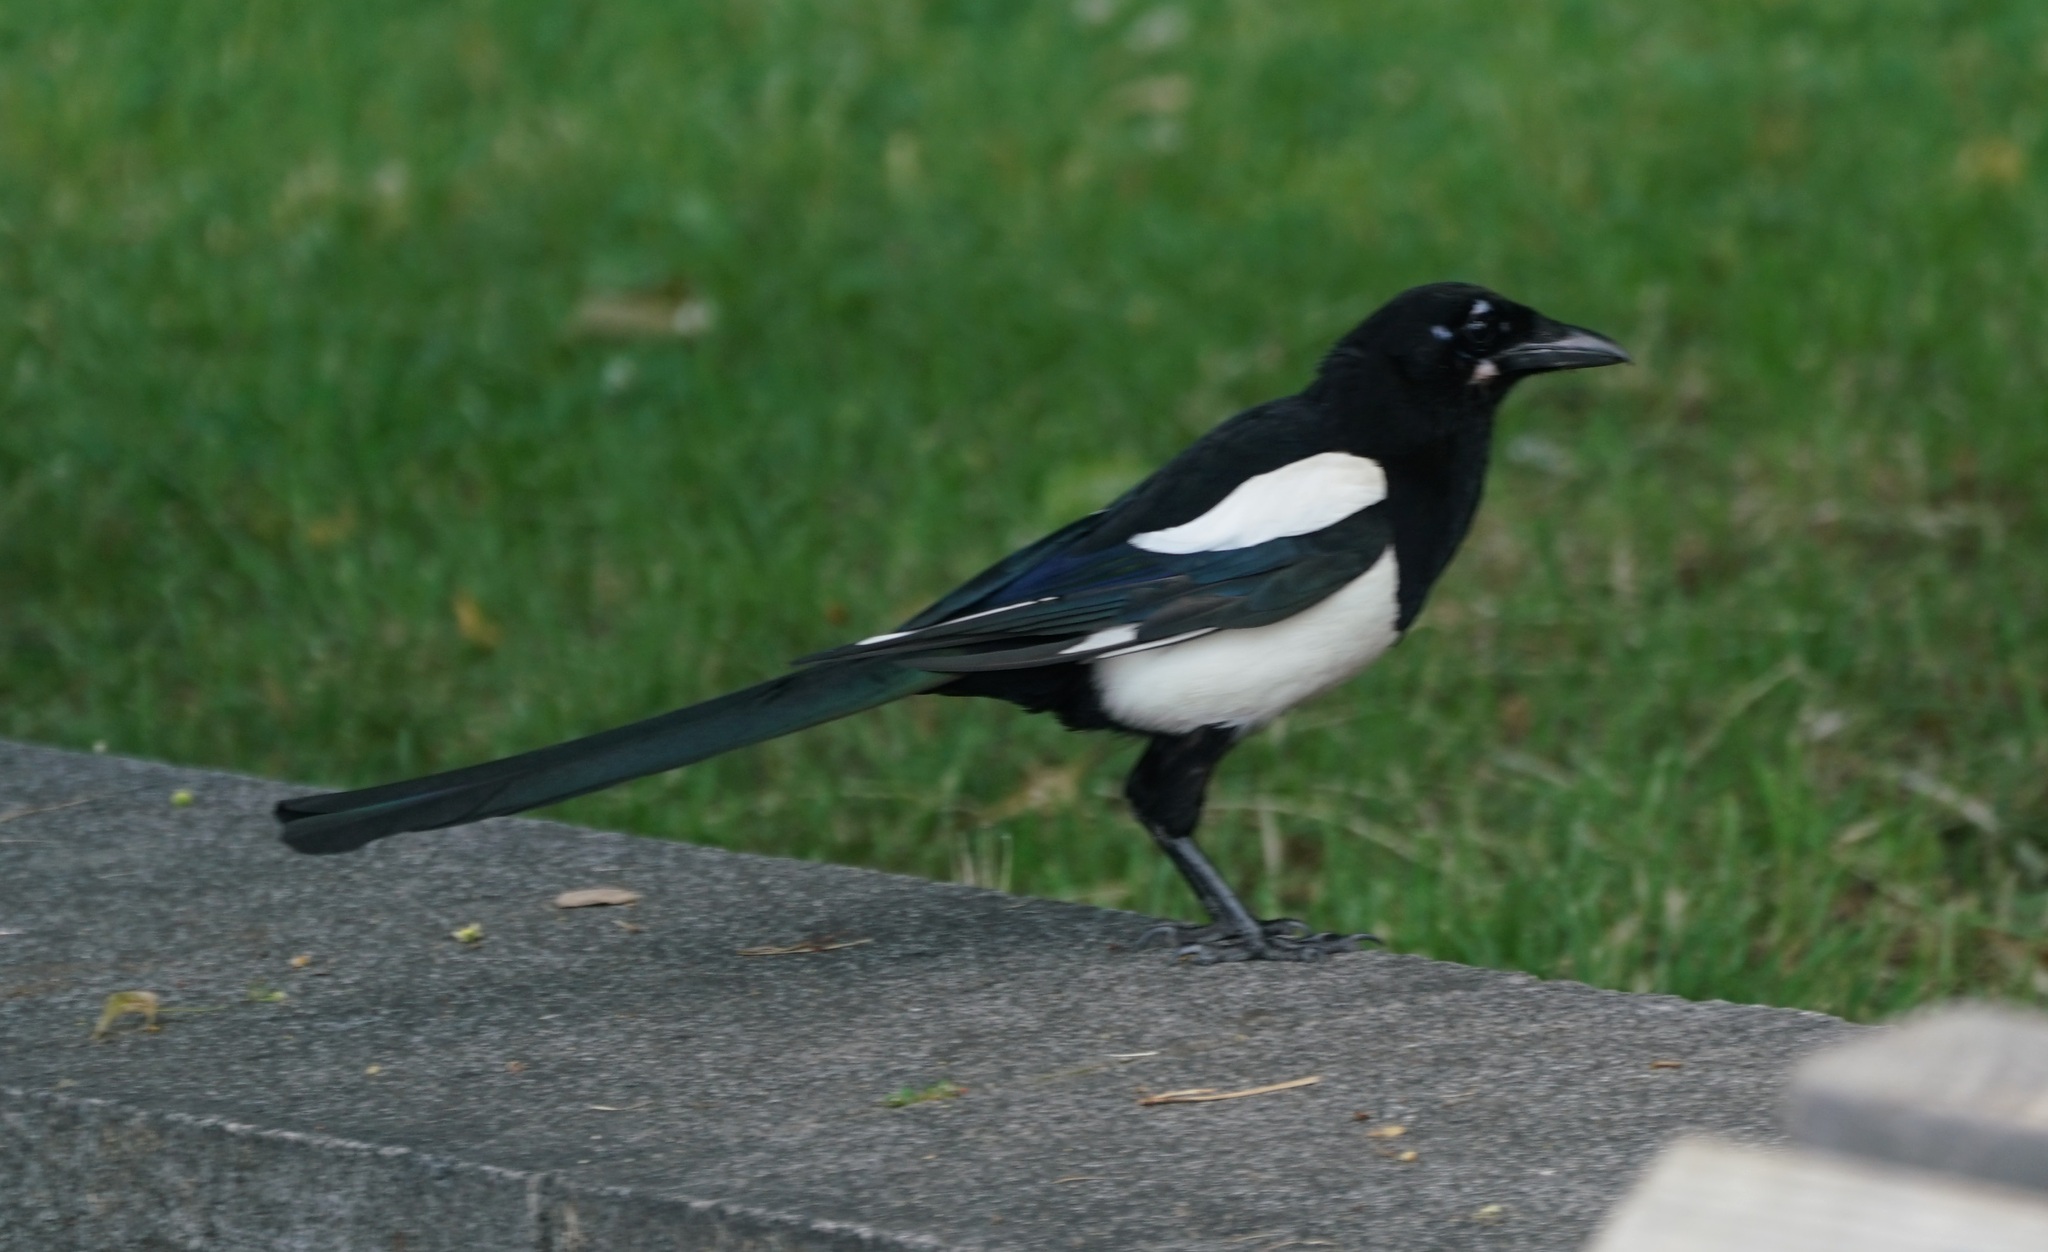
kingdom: Animalia
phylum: Chordata
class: Aves
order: Passeriformes
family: Corvidae
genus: Pica
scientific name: Pica pica
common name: Eurasian magpie
